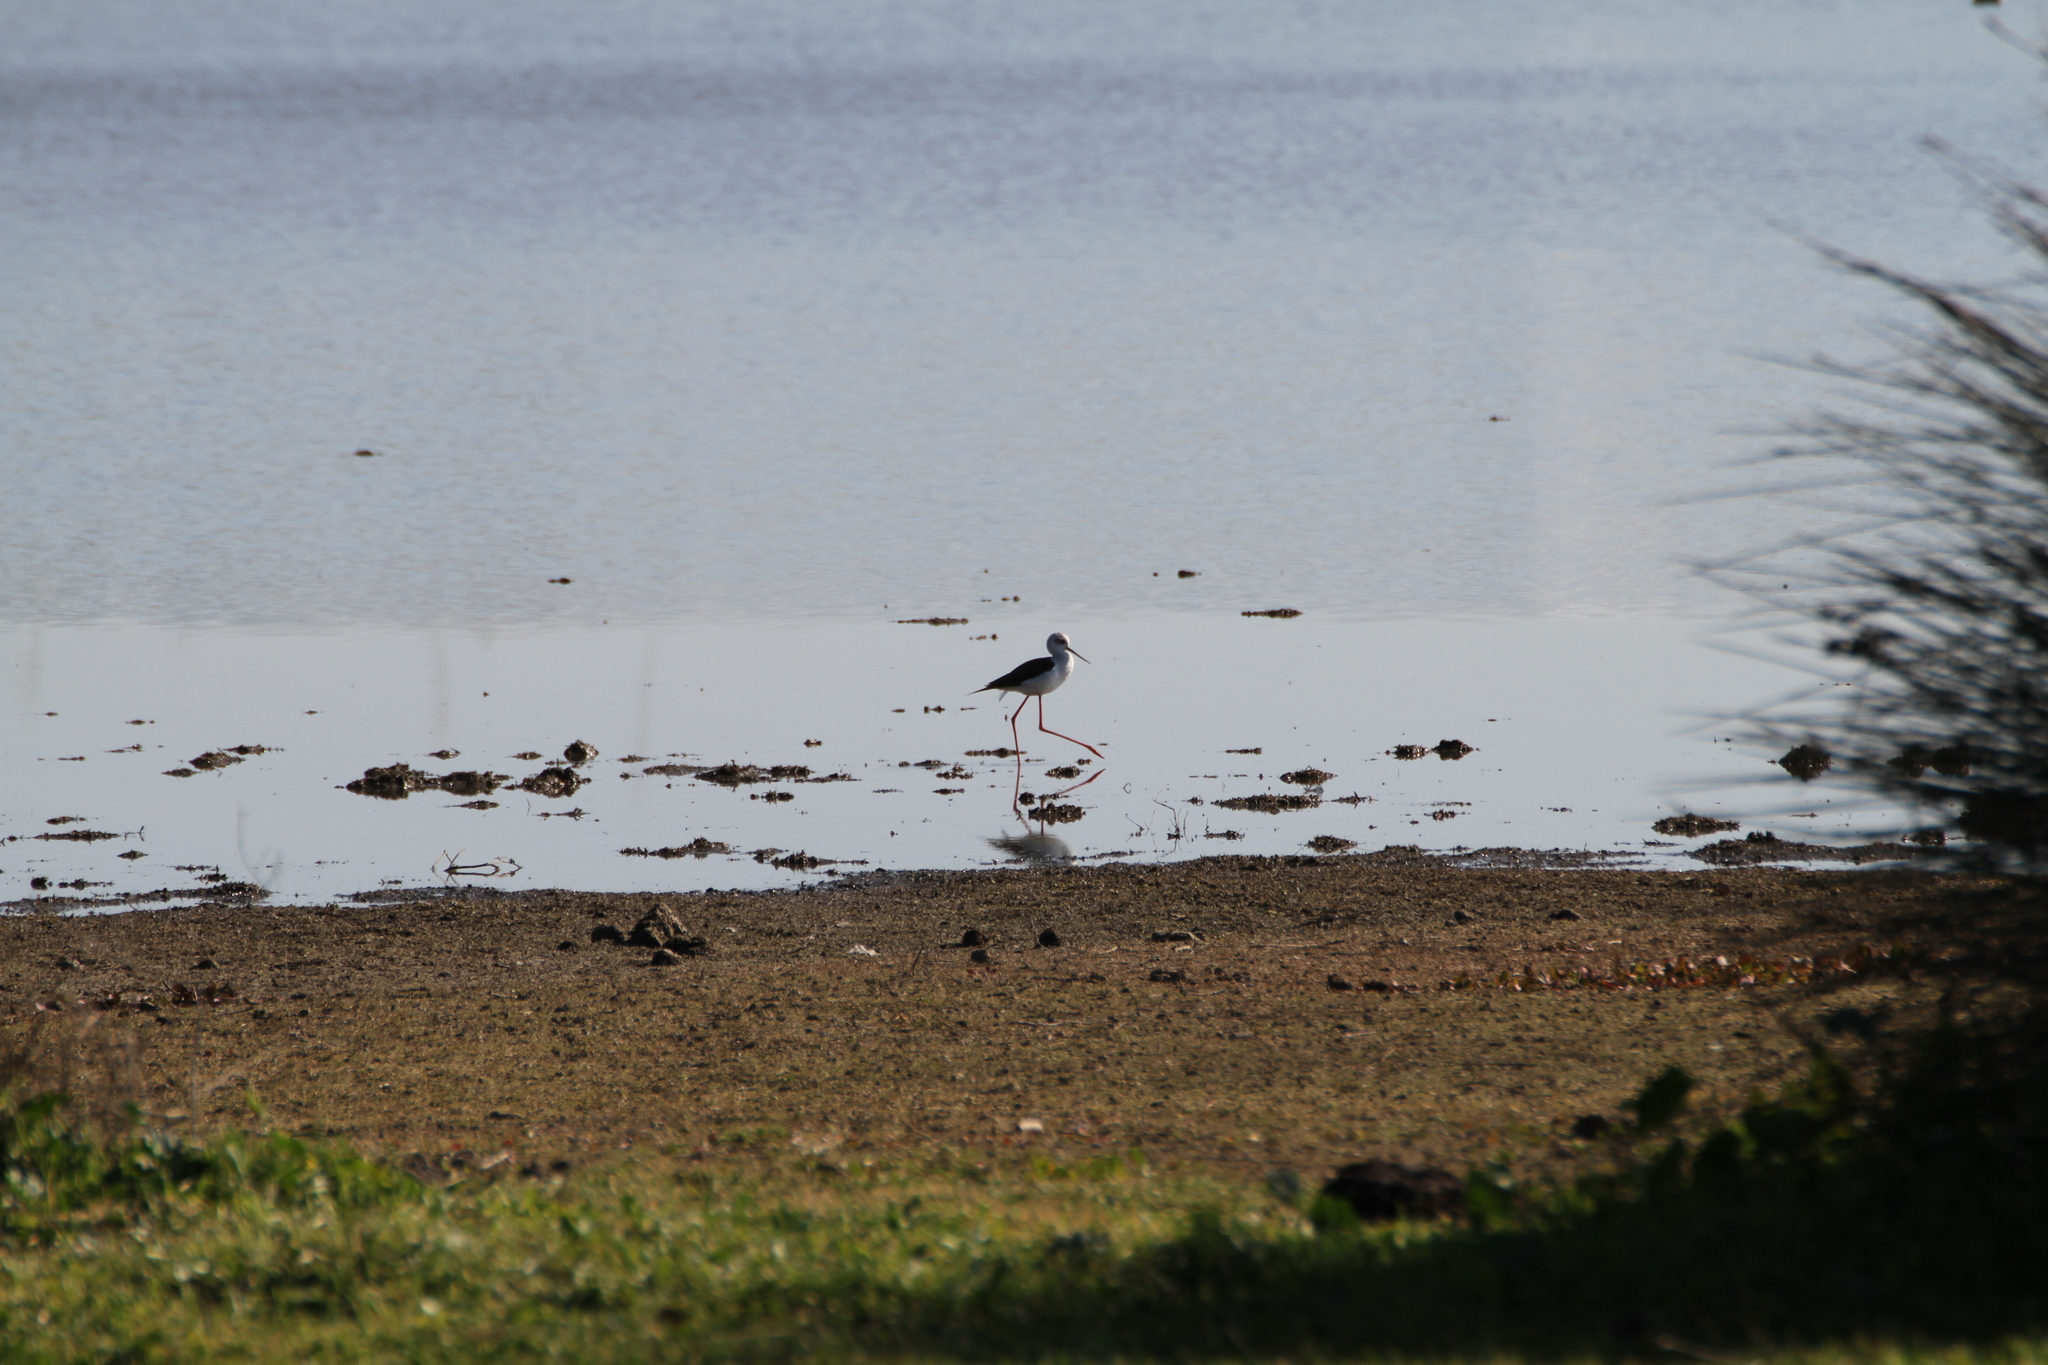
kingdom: Animalia
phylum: Chordata
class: Aves
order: Charadriiformes
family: Recurvirostridae
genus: Himantopus
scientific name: Himantopus himantopus
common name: Black-winged stilt
